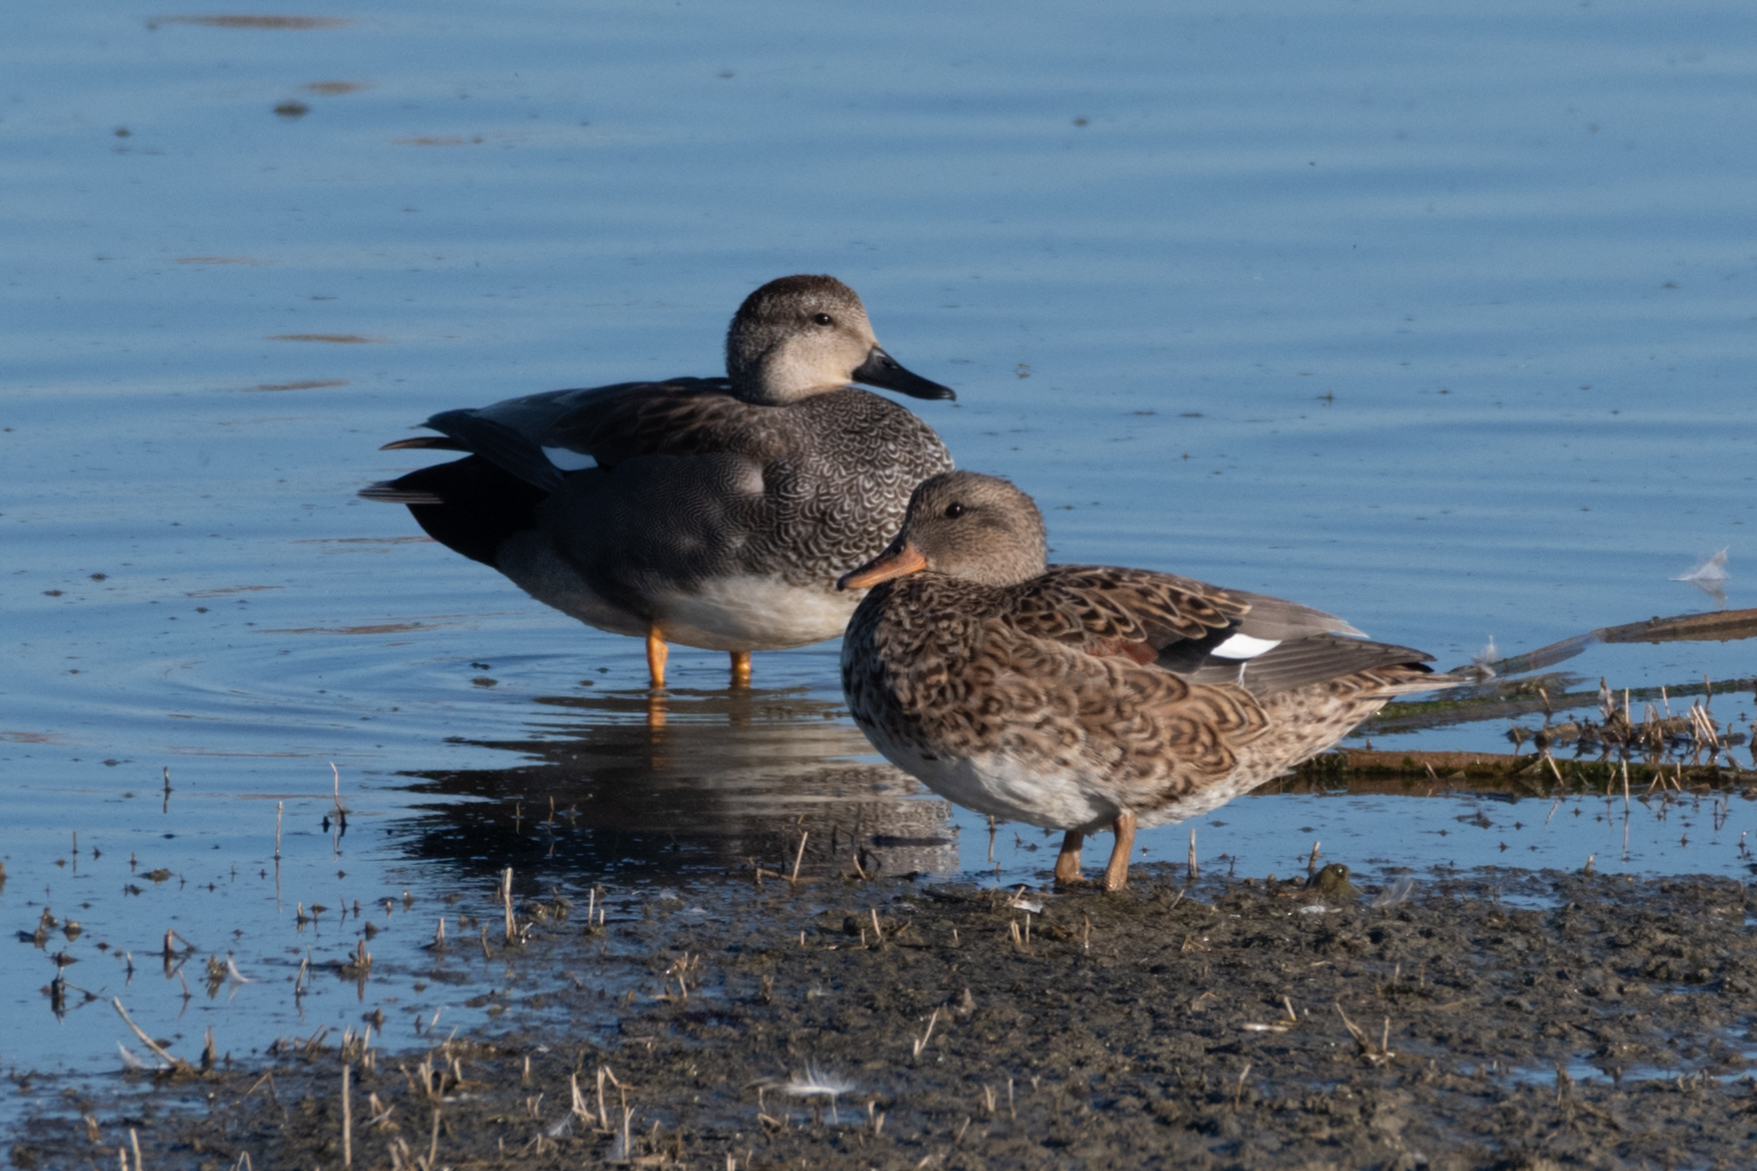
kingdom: Animalia
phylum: Chordata
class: Aves
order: Anseriformes
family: Anatidae
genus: Mareca
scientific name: Mareca strepera
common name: Gadwall
